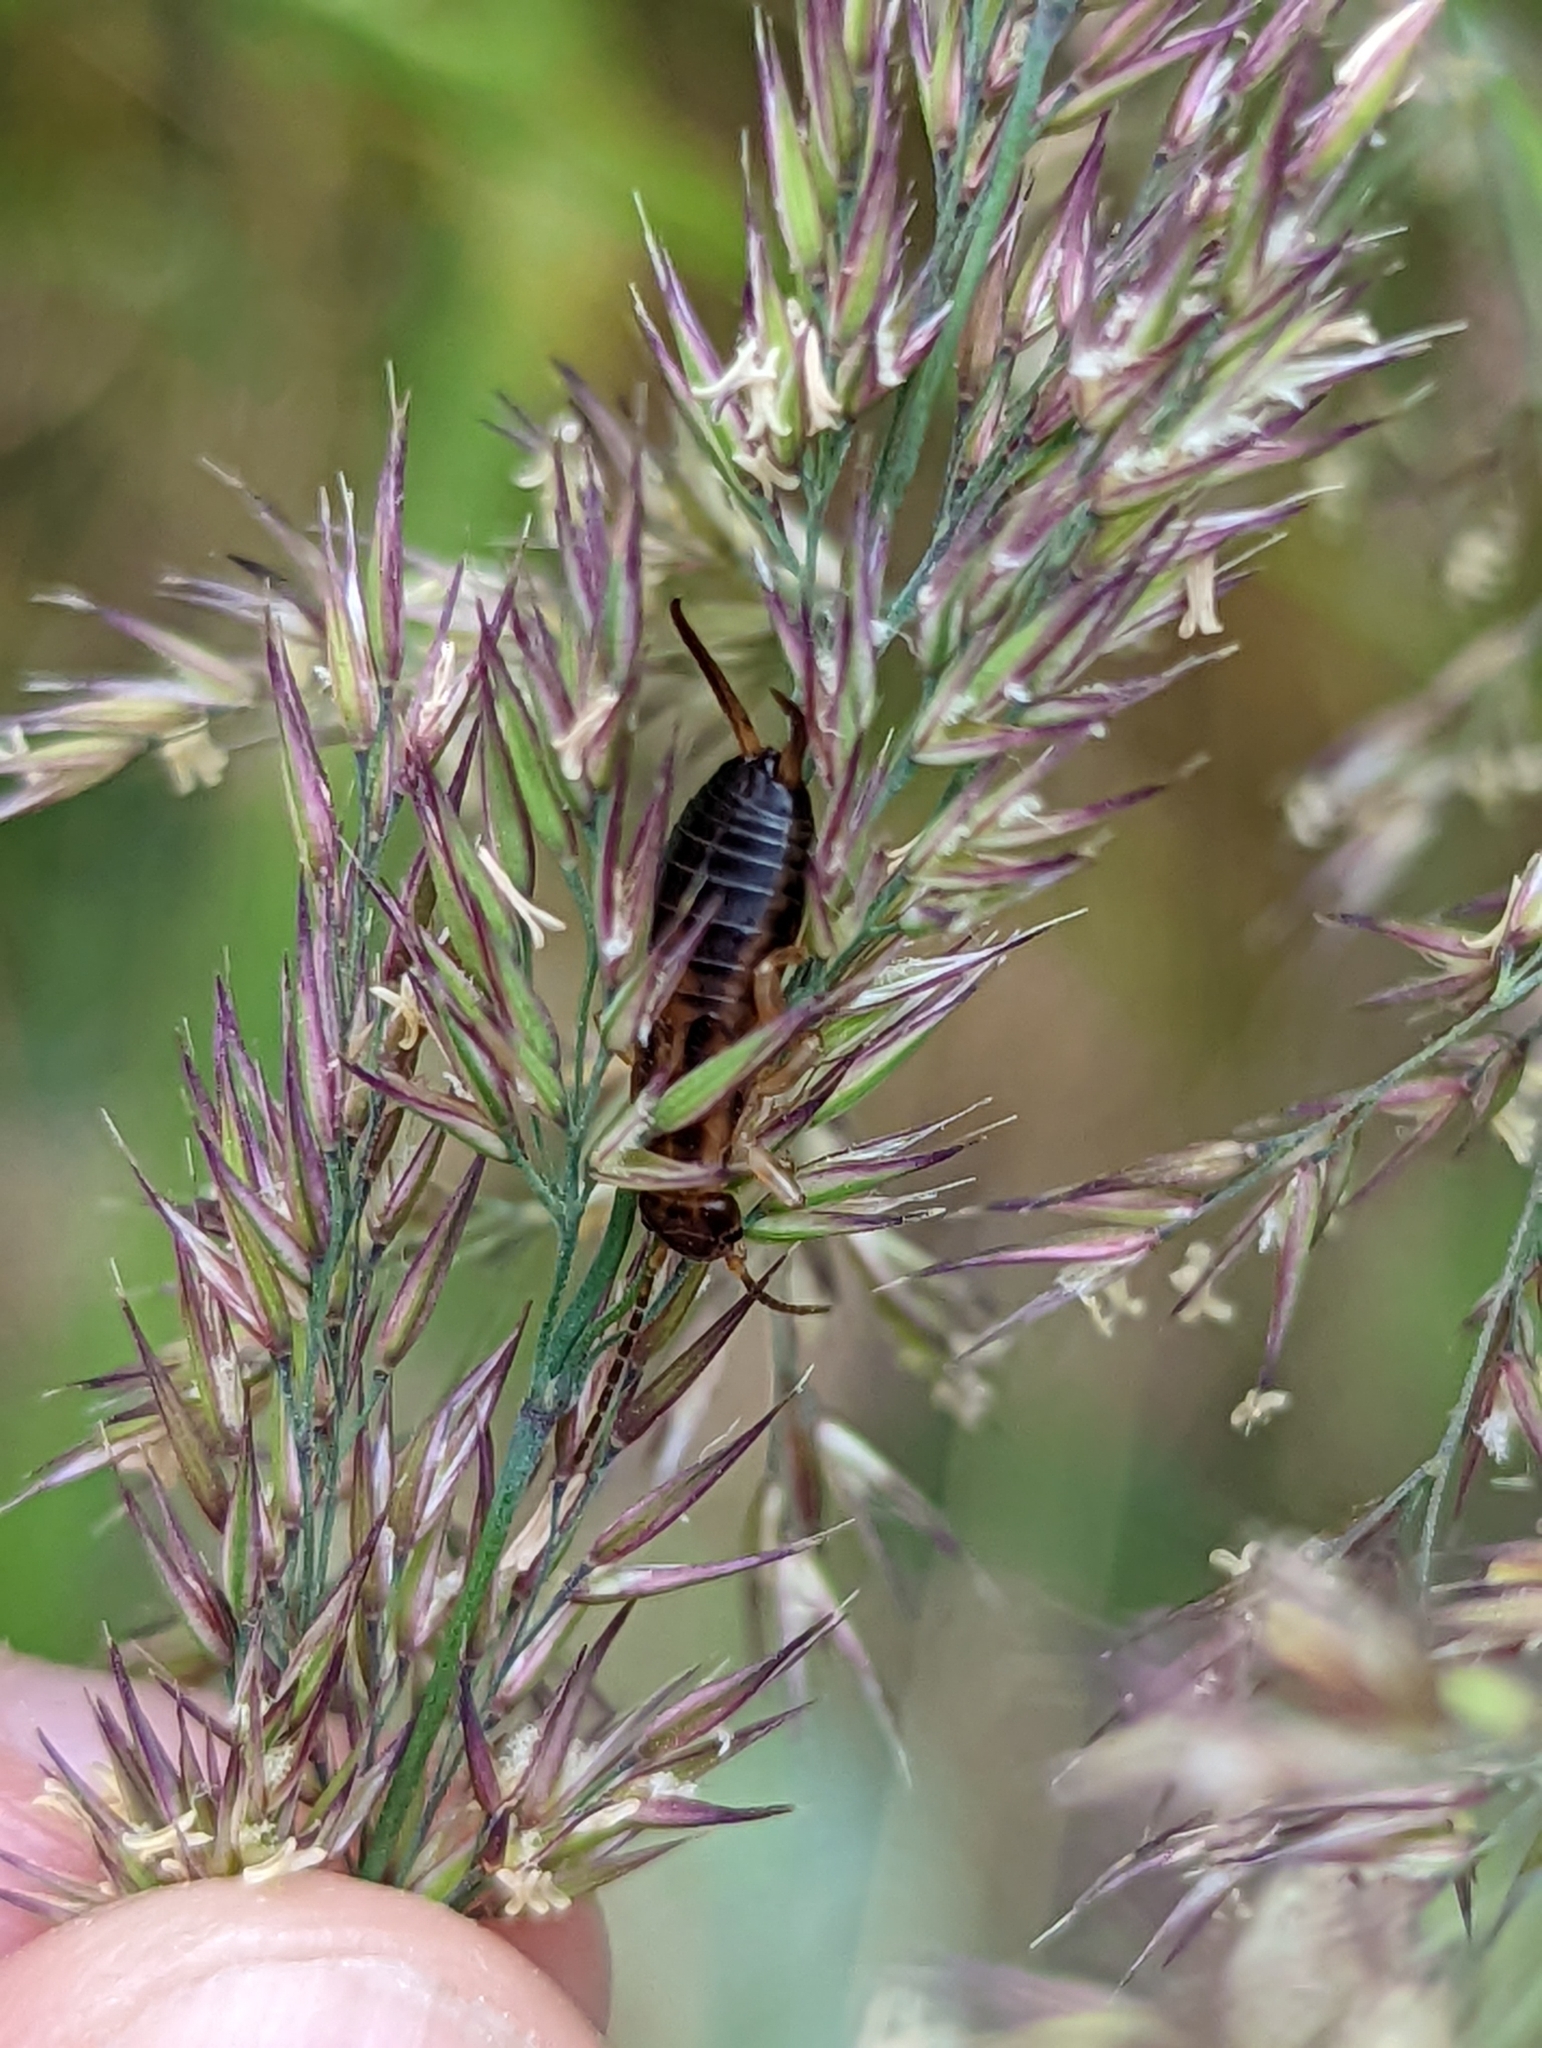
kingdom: Animalia
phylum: Arthropoda
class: Insecta
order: Dermaptera
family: Forficulidae
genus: Forficula
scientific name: Forficula
